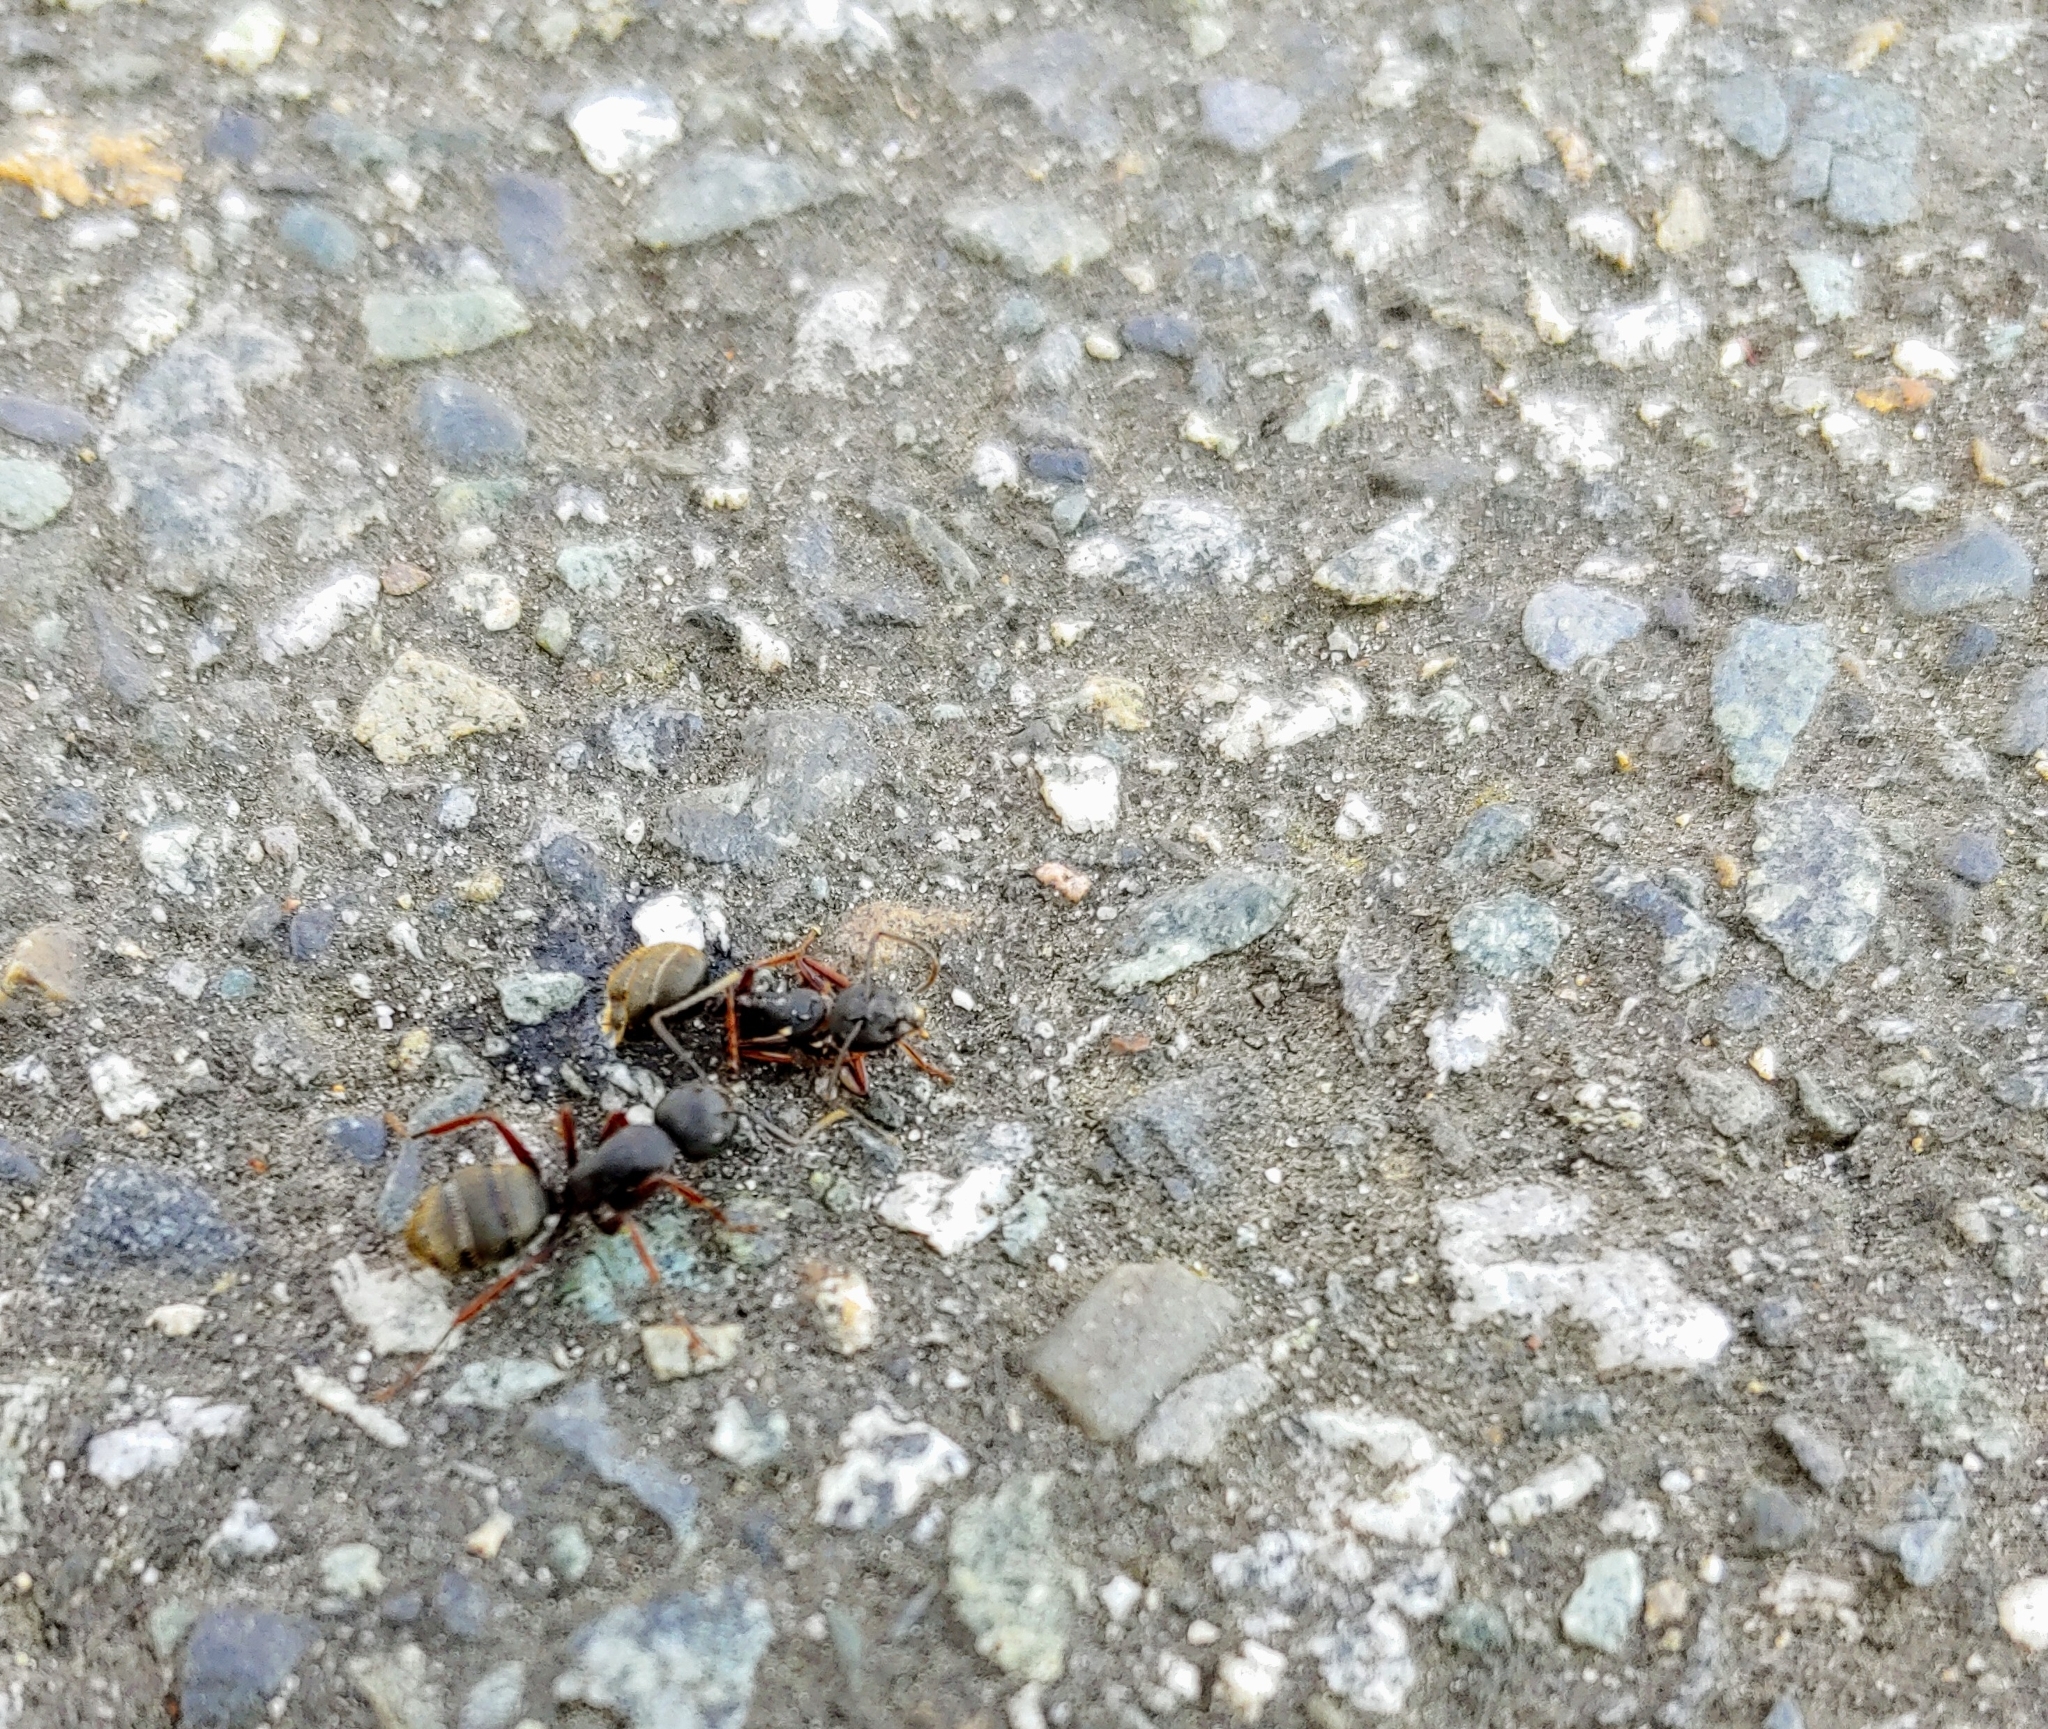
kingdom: Animalia
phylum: Arthropoda
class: Insecta
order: Hymenoptera
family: Formicidae
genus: Camponotus
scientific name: Camponotus modoc
